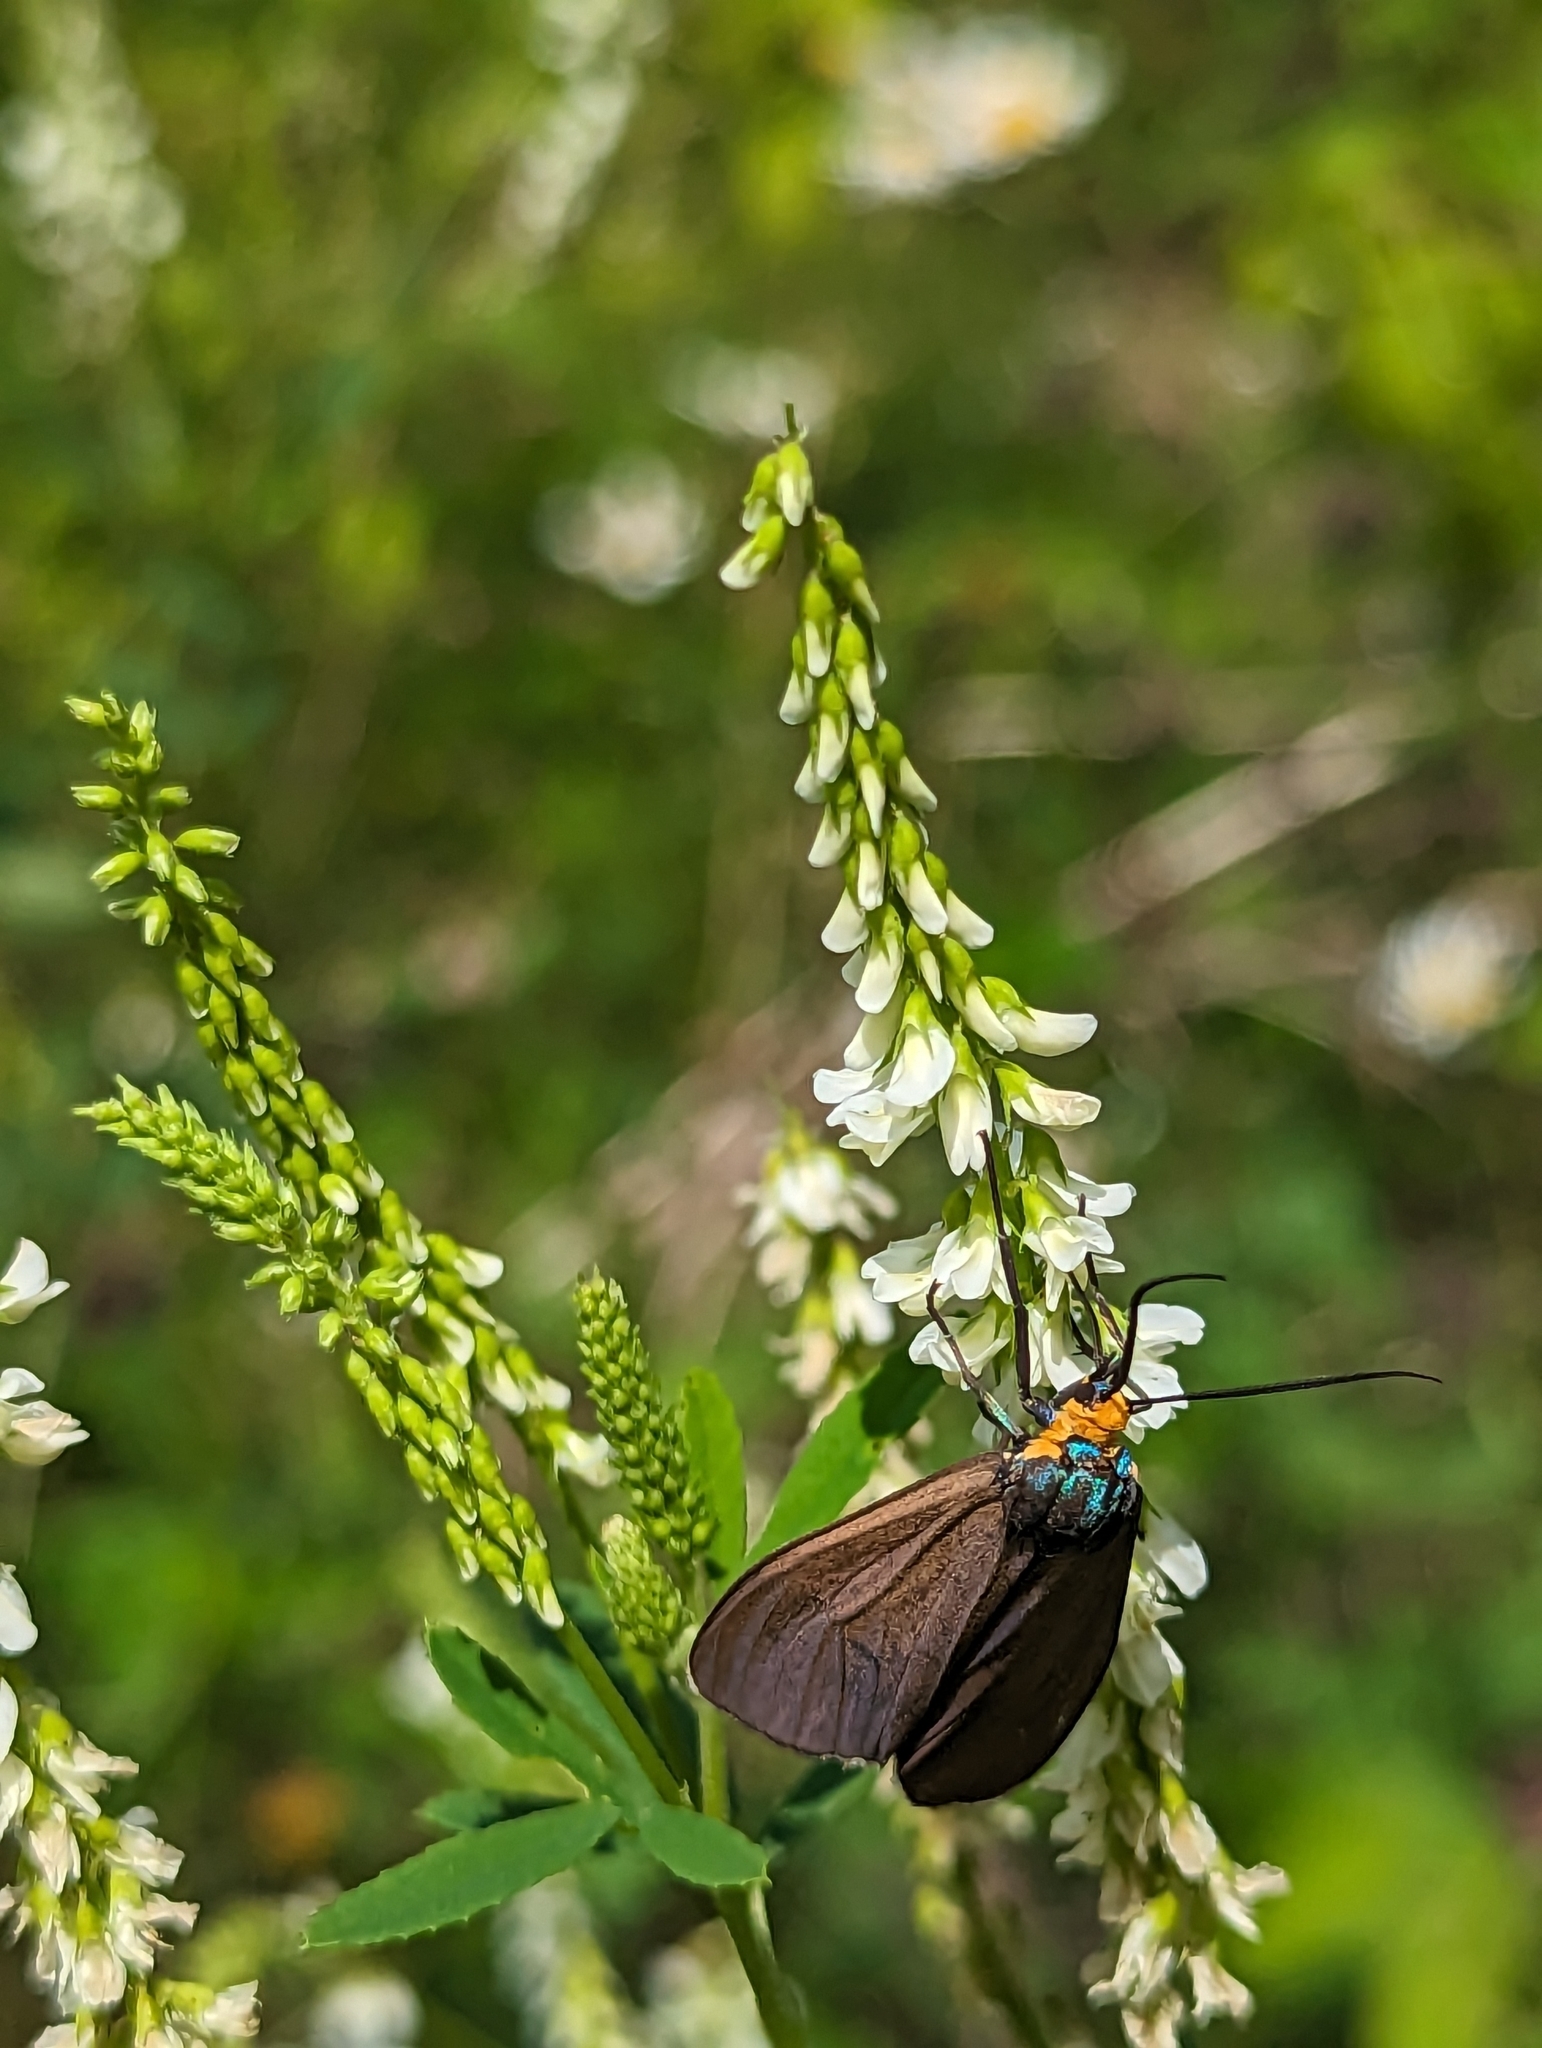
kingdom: Animalia
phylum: Arthropoda
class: Insecta
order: Lepidoptera
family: Erebidae
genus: Ctenucha
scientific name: Ctenucha virginica
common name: Virginia ctenucha moth
